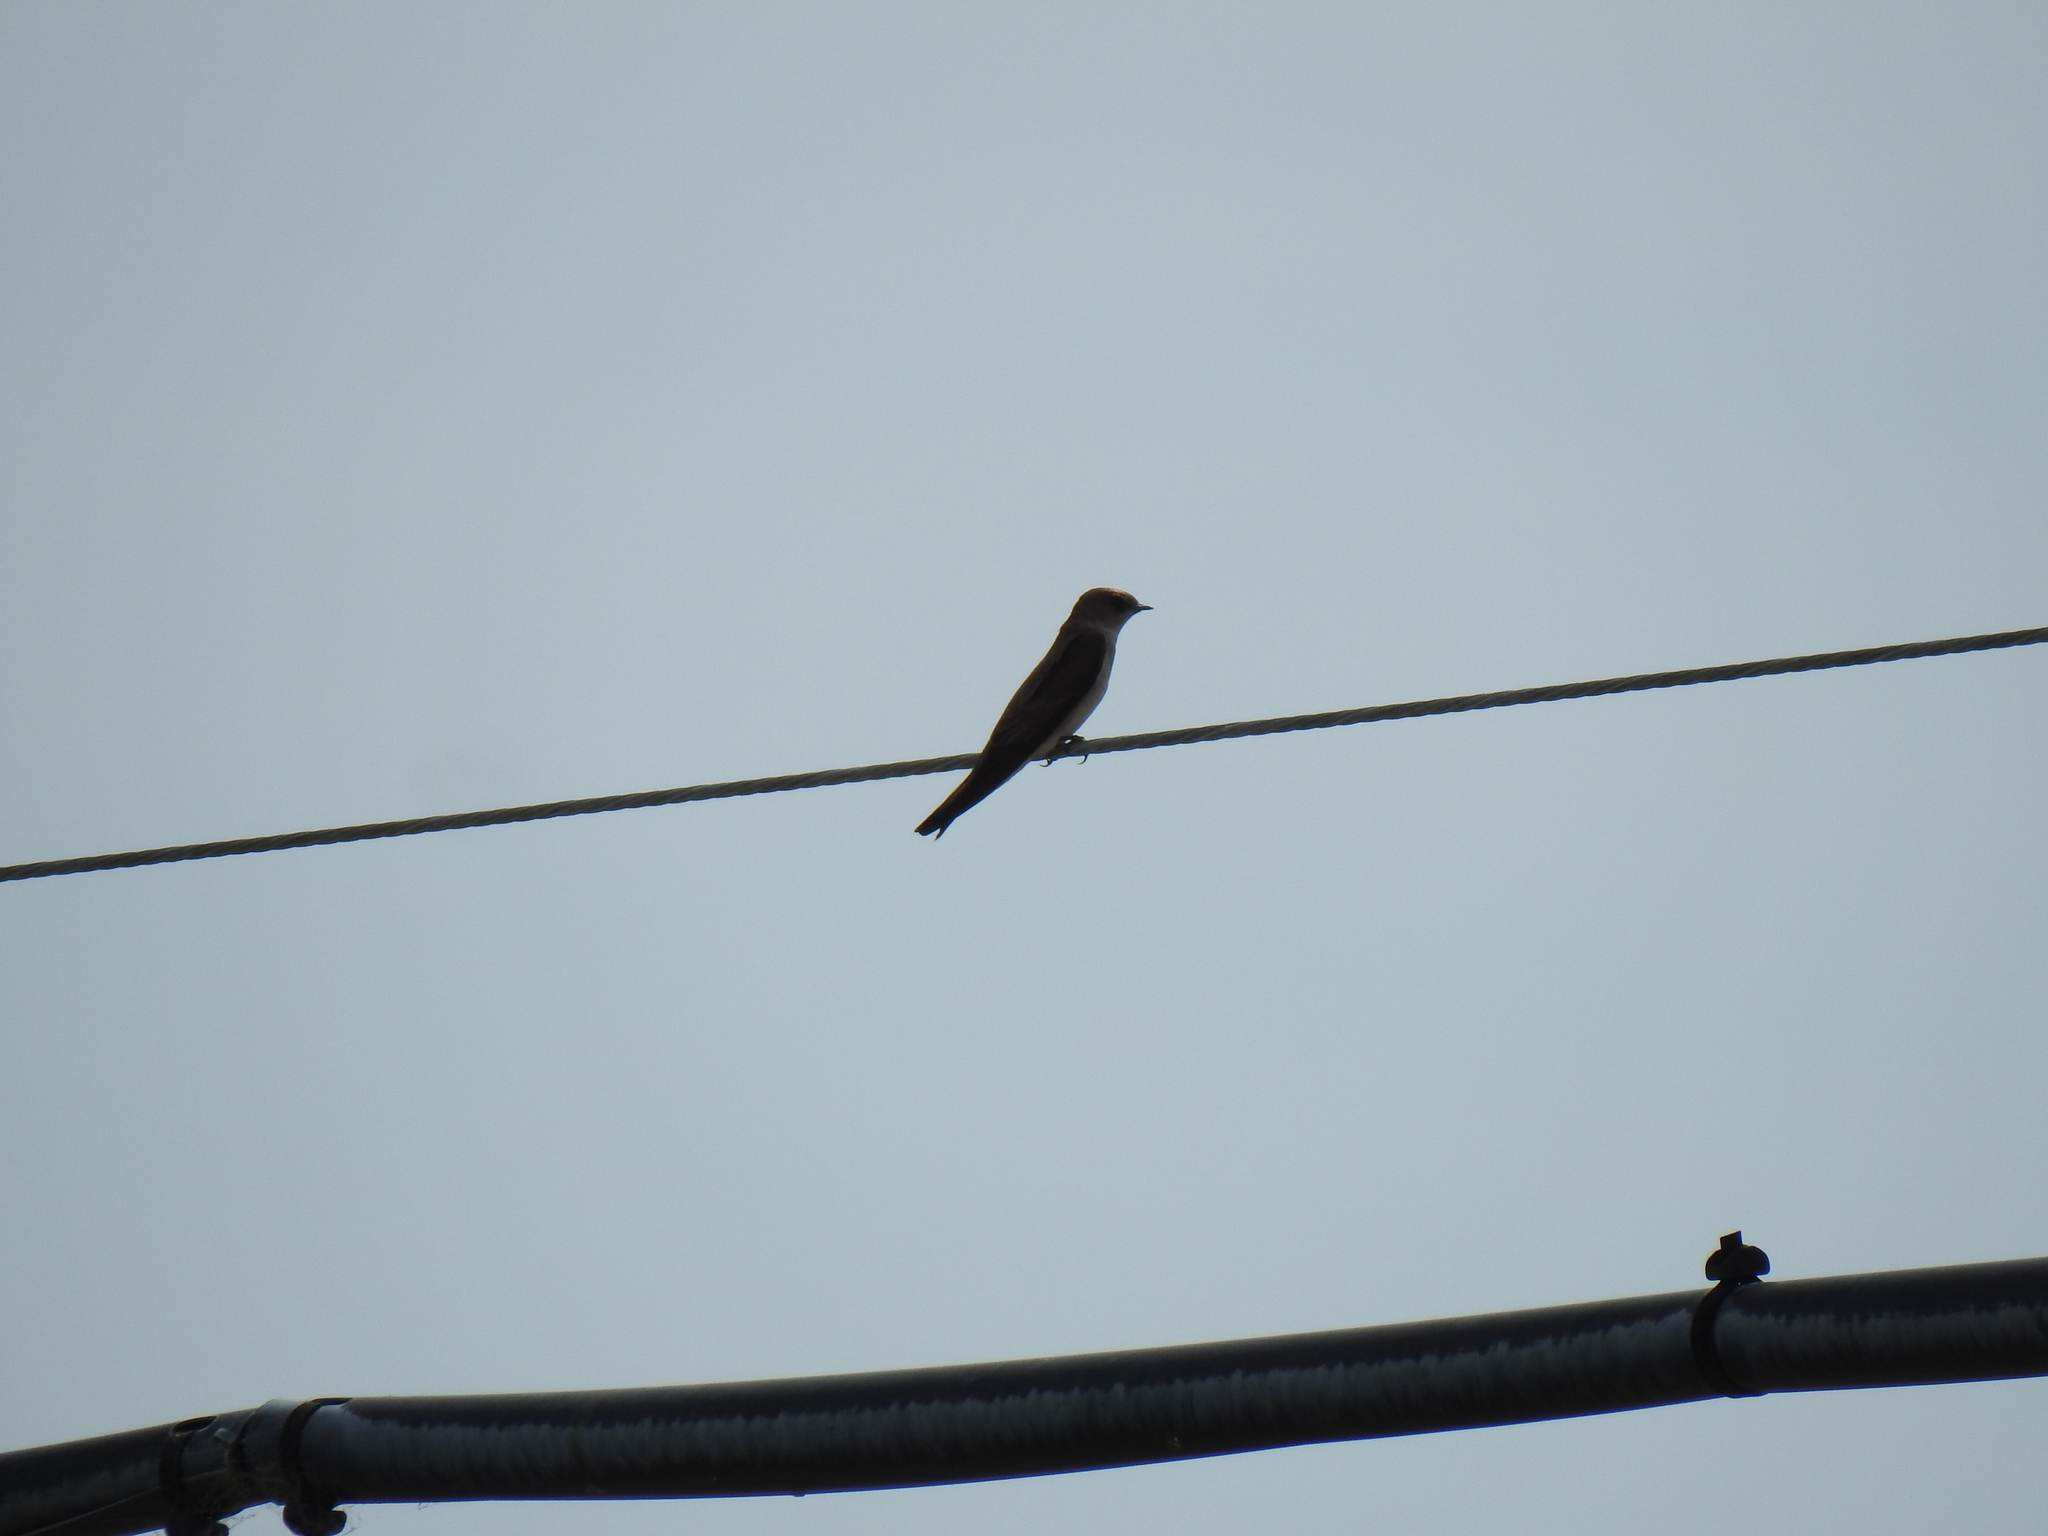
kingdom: Animalia
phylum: Chordata
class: Aves
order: Passeriformes
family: Hirundinidae
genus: Stelgidopteryx
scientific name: Stelgidopteryx serripennis
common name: Northern rough-winged swallow
